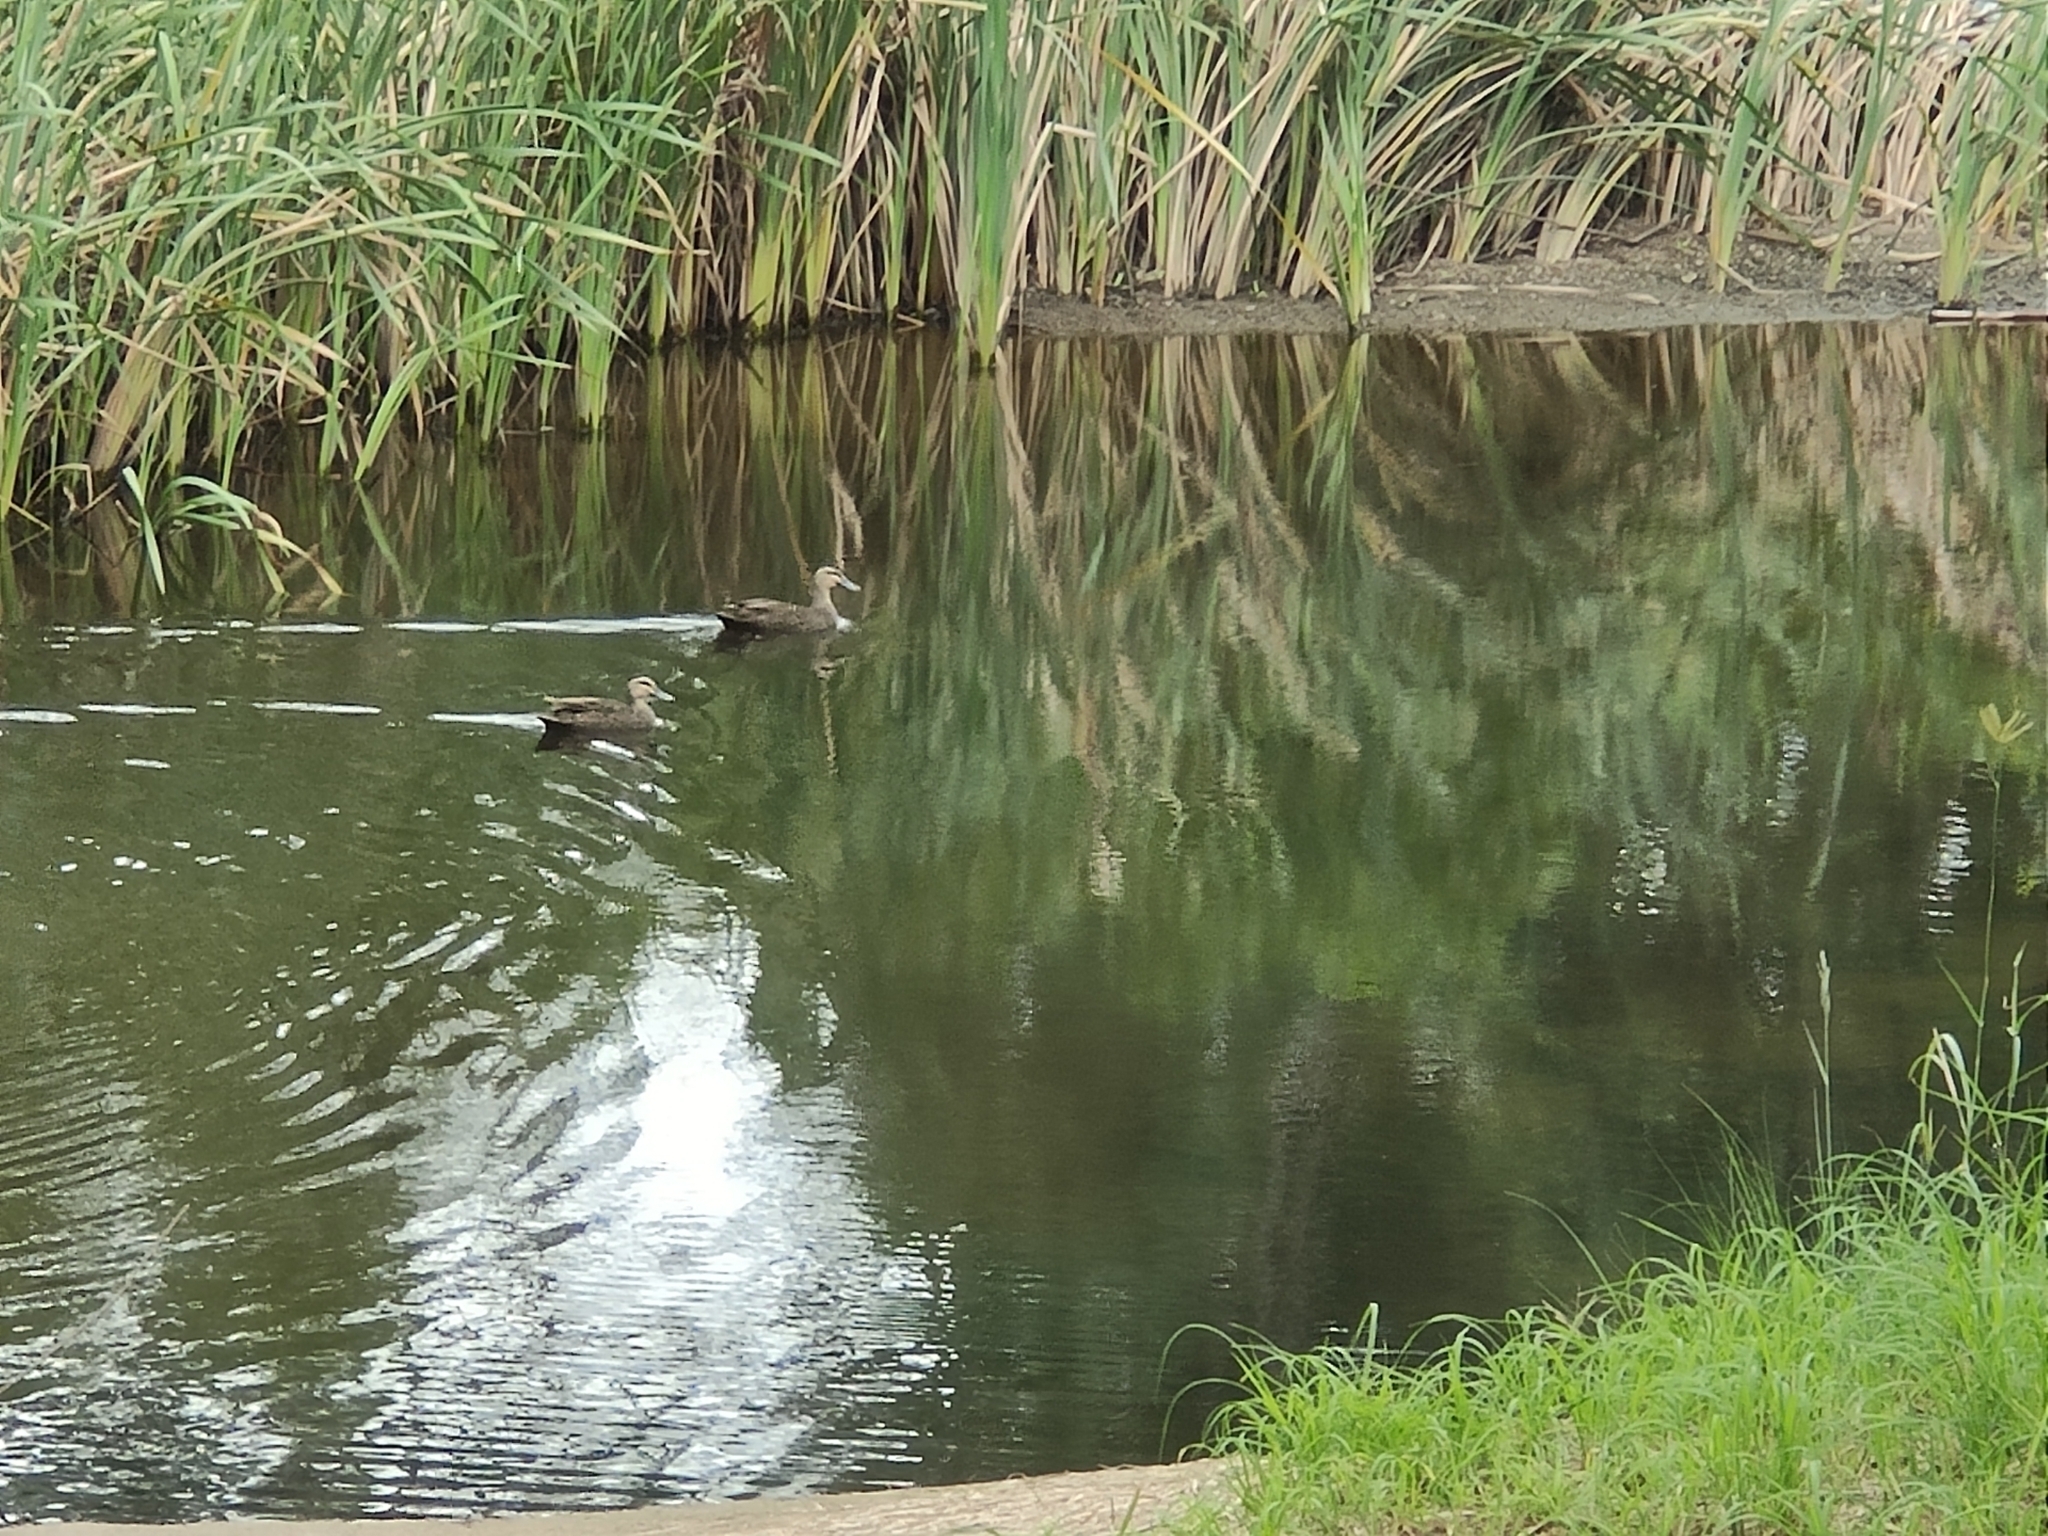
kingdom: Animalia
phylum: Chordata
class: Aves
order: Anseriformes
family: Anatidae
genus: Anas
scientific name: Anas superciliosa
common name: Pacific black duck
